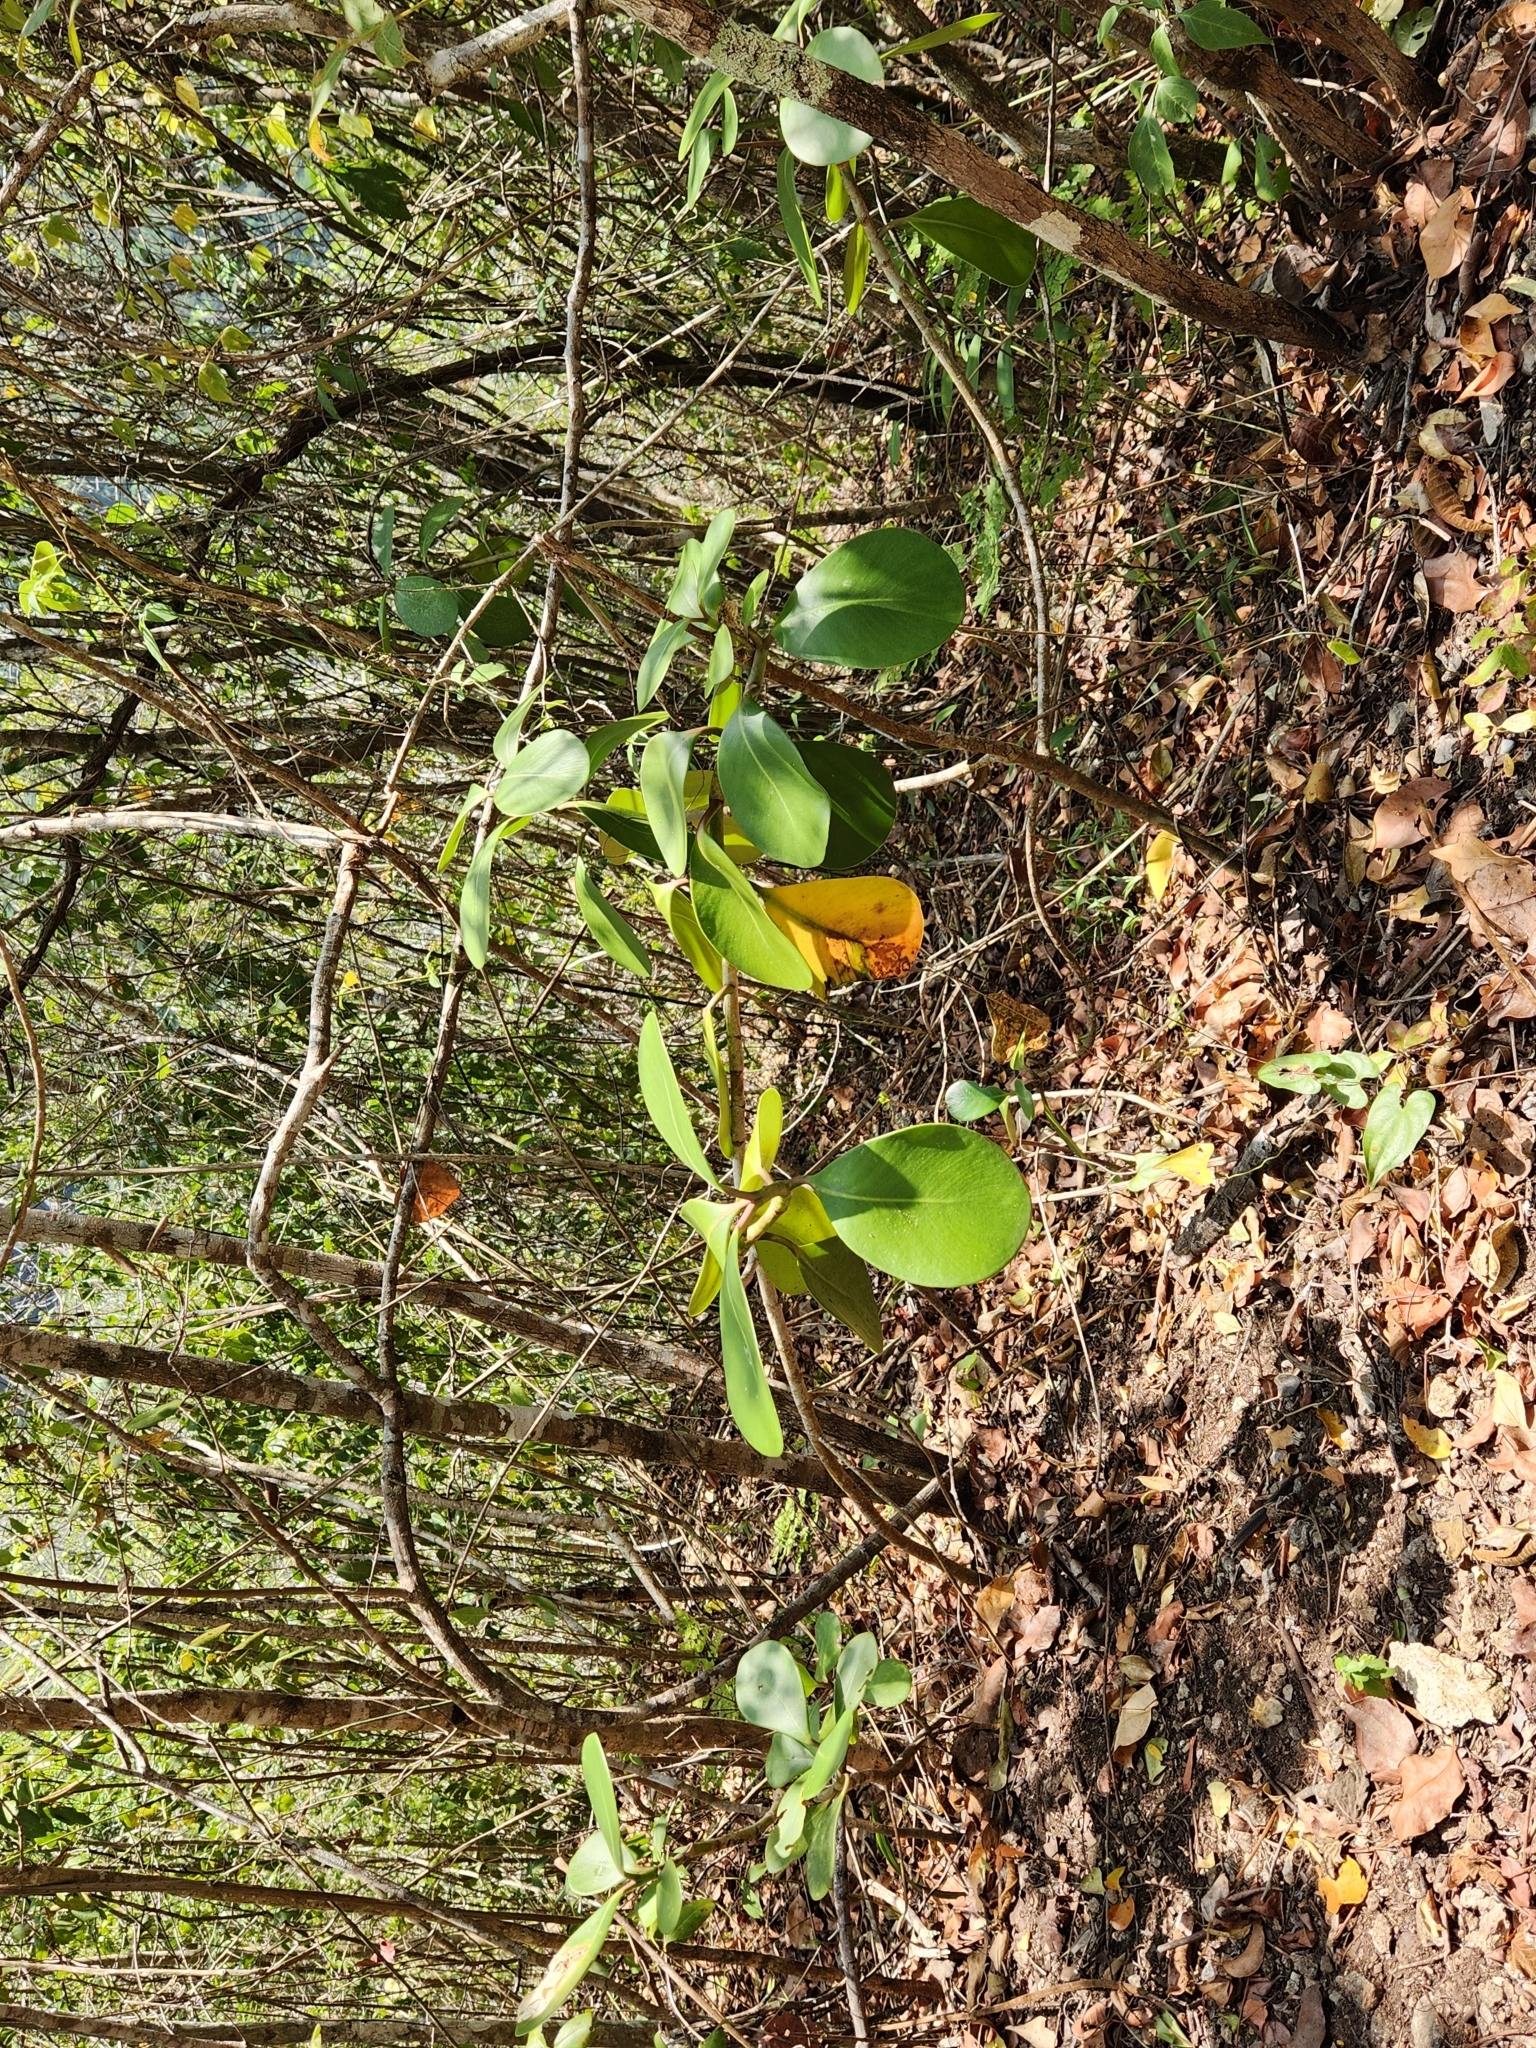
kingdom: Plantae
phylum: Tracheophyta
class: Magnoliopsida
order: Malpighiales
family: Clusiaceae
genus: Clusia
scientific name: Clusia rosea
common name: Scotch attorney
